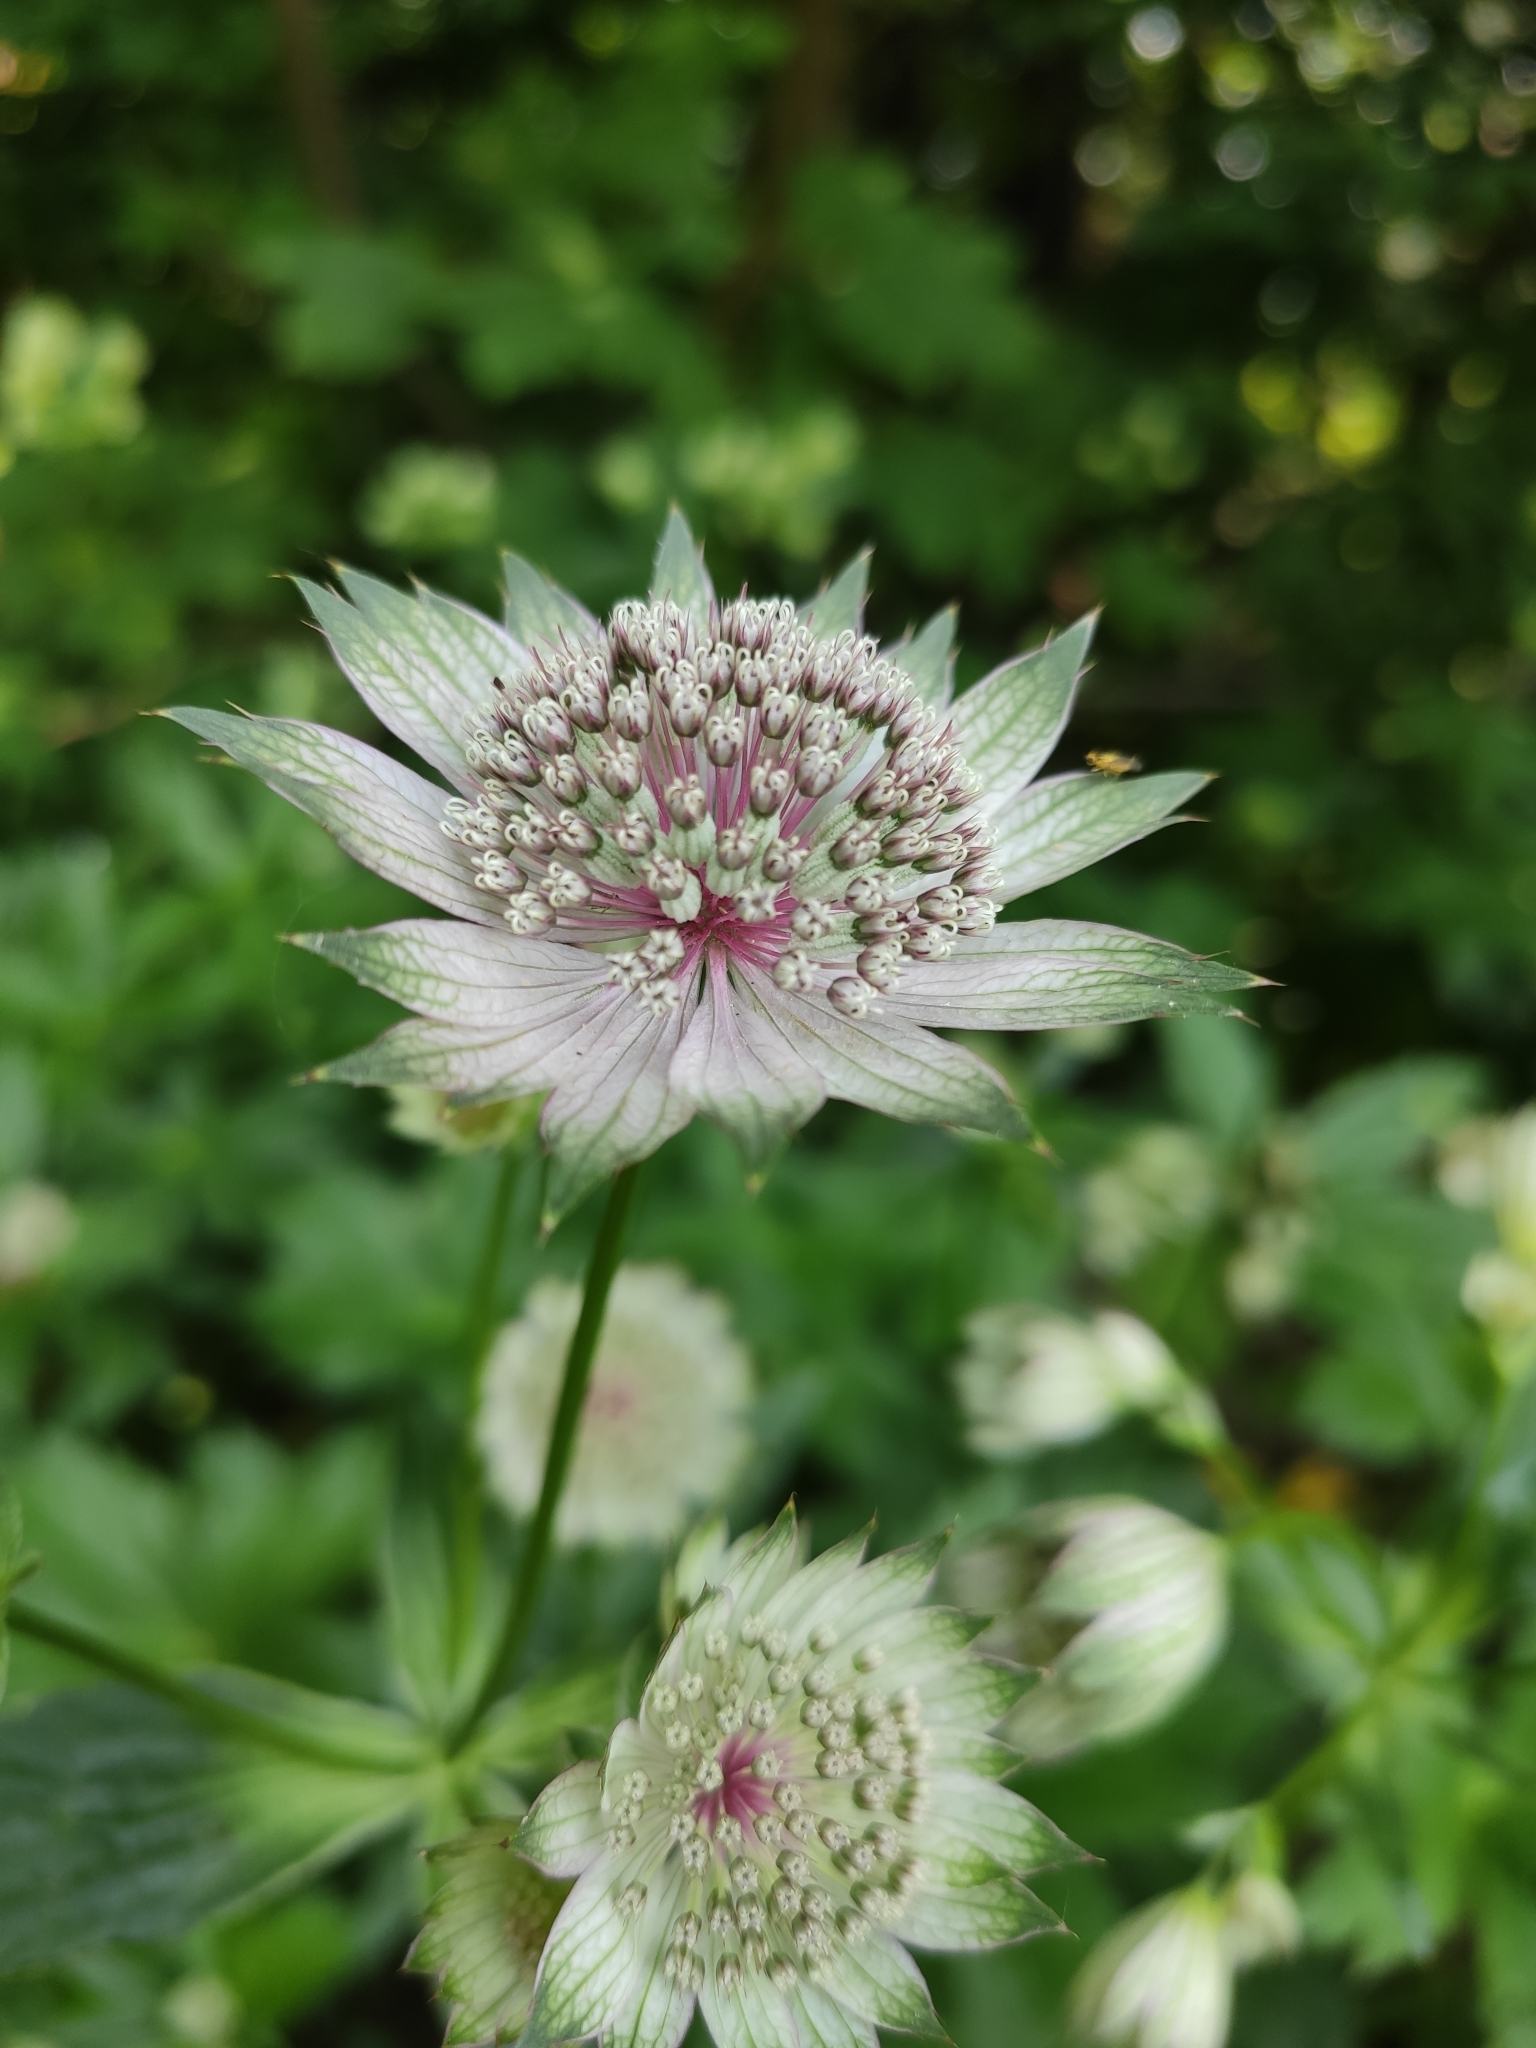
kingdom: Plantae
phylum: Tracheophyta
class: Magnoliopsida
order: Apiales
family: Apiaceae
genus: Astrantia
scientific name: Astrantia major
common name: Greater masterwort
